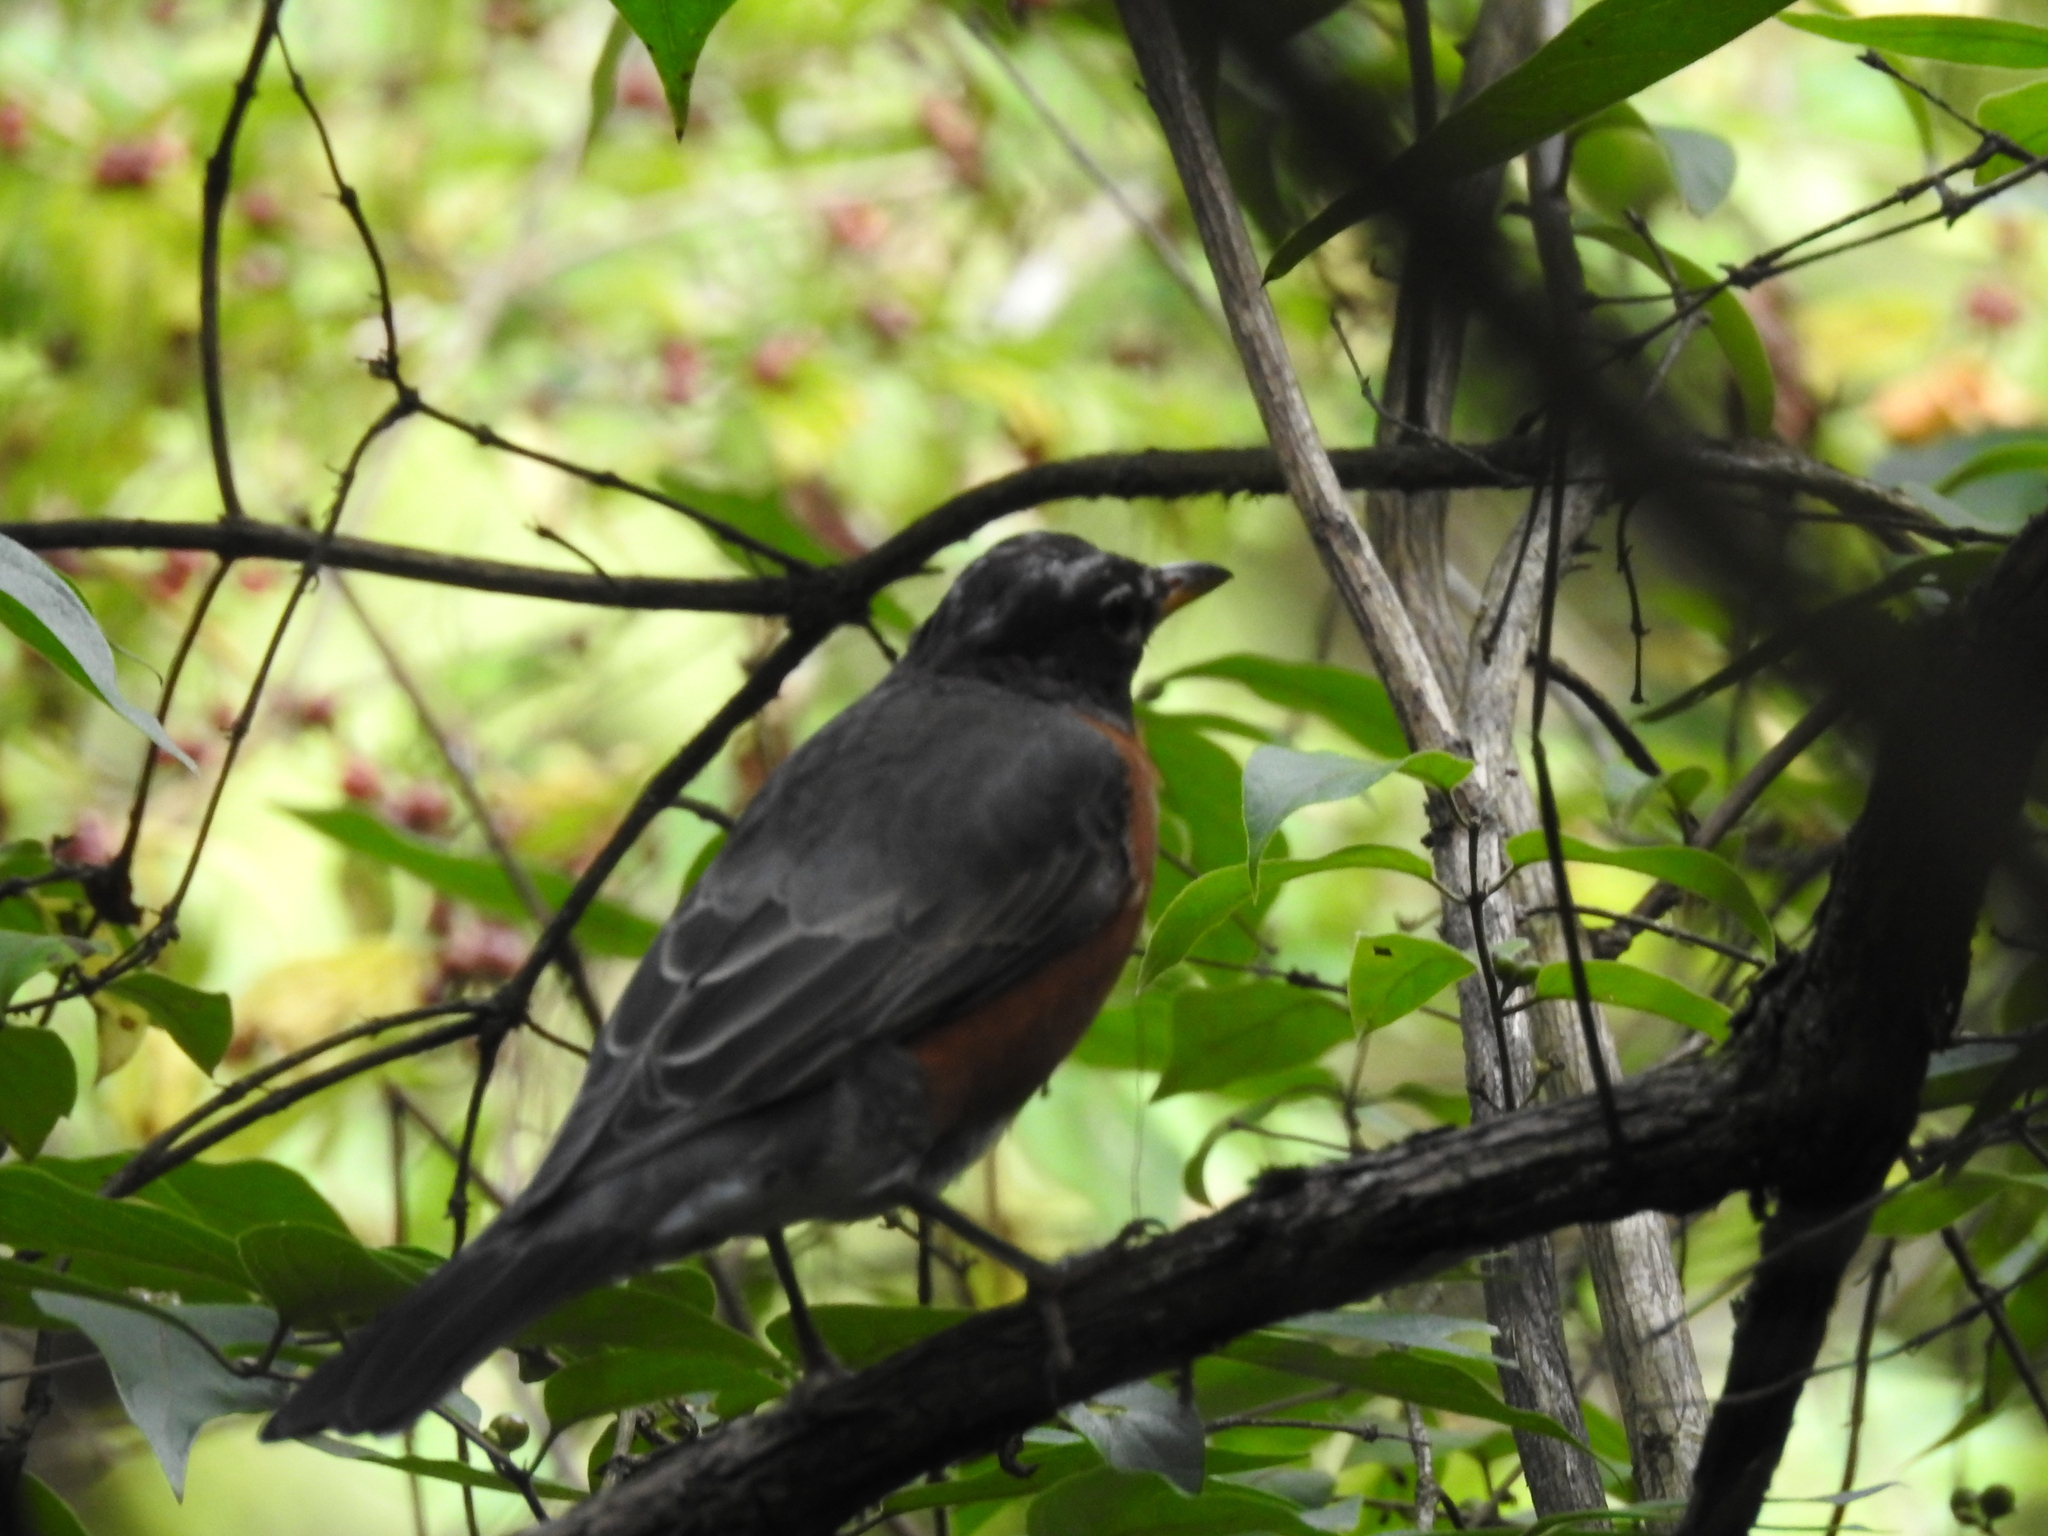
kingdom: Animalia
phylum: Chordata
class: Aves
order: Passeriformes
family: Turdidae
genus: Turdus
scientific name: Turdus migratorius
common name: American robin
